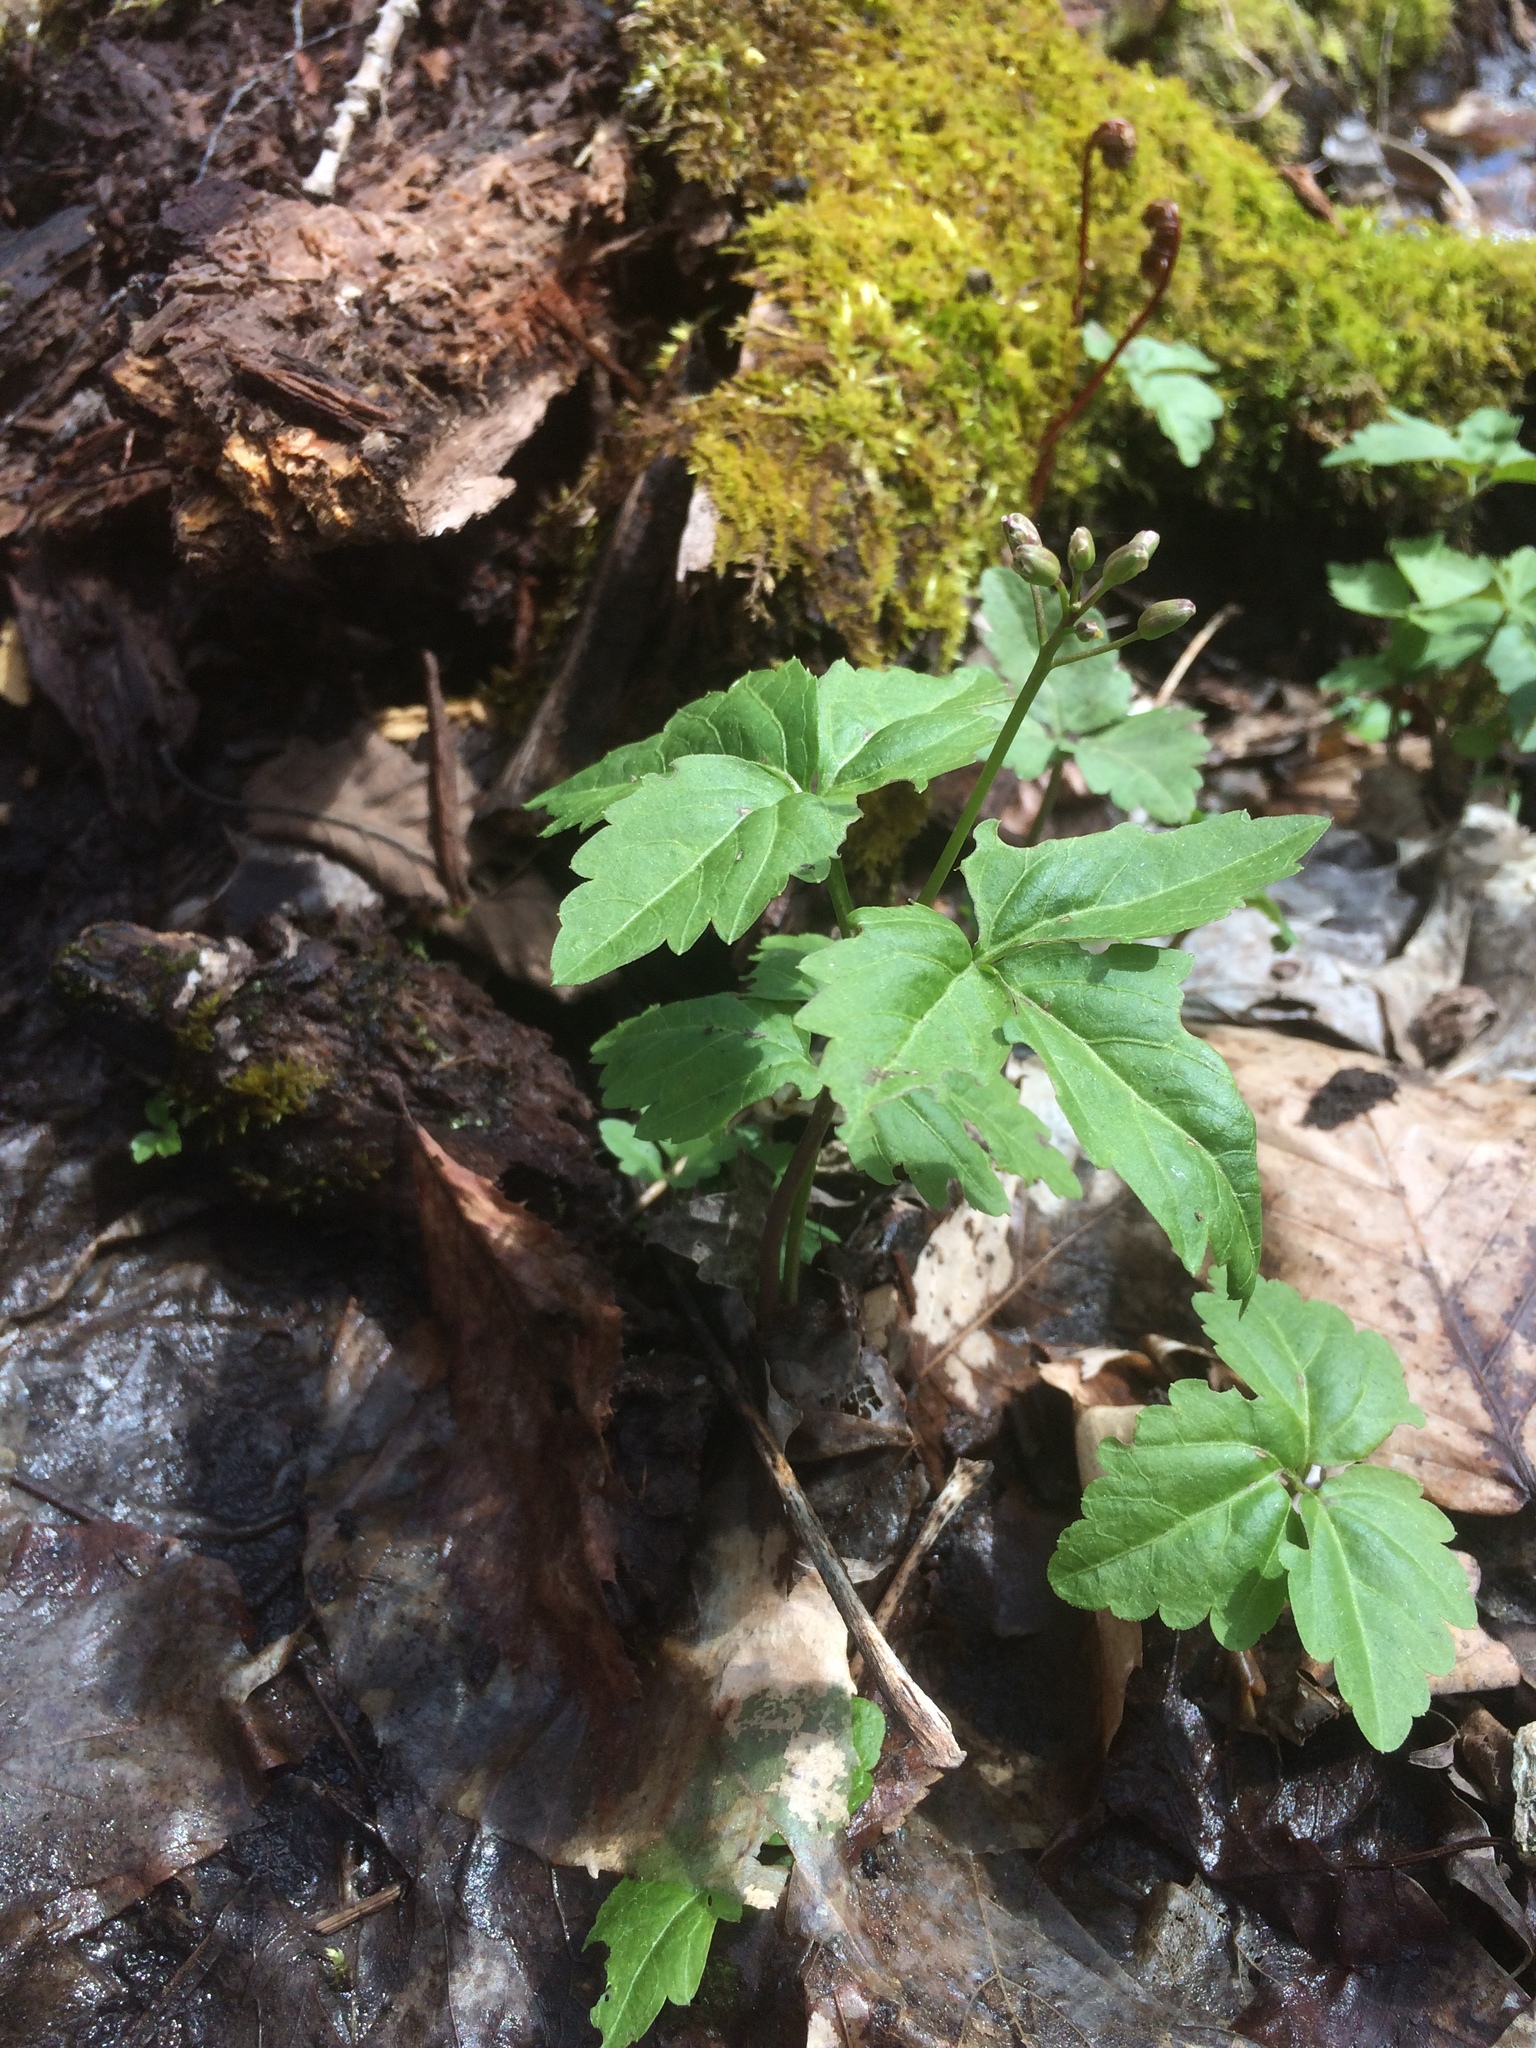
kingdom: Plantae
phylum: Tracheophyta
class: Magnoliopsida
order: Brassicales
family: Brassicaceae
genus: Cardamine
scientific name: Cardamine diphylla
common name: Broad-leaved toothwort
